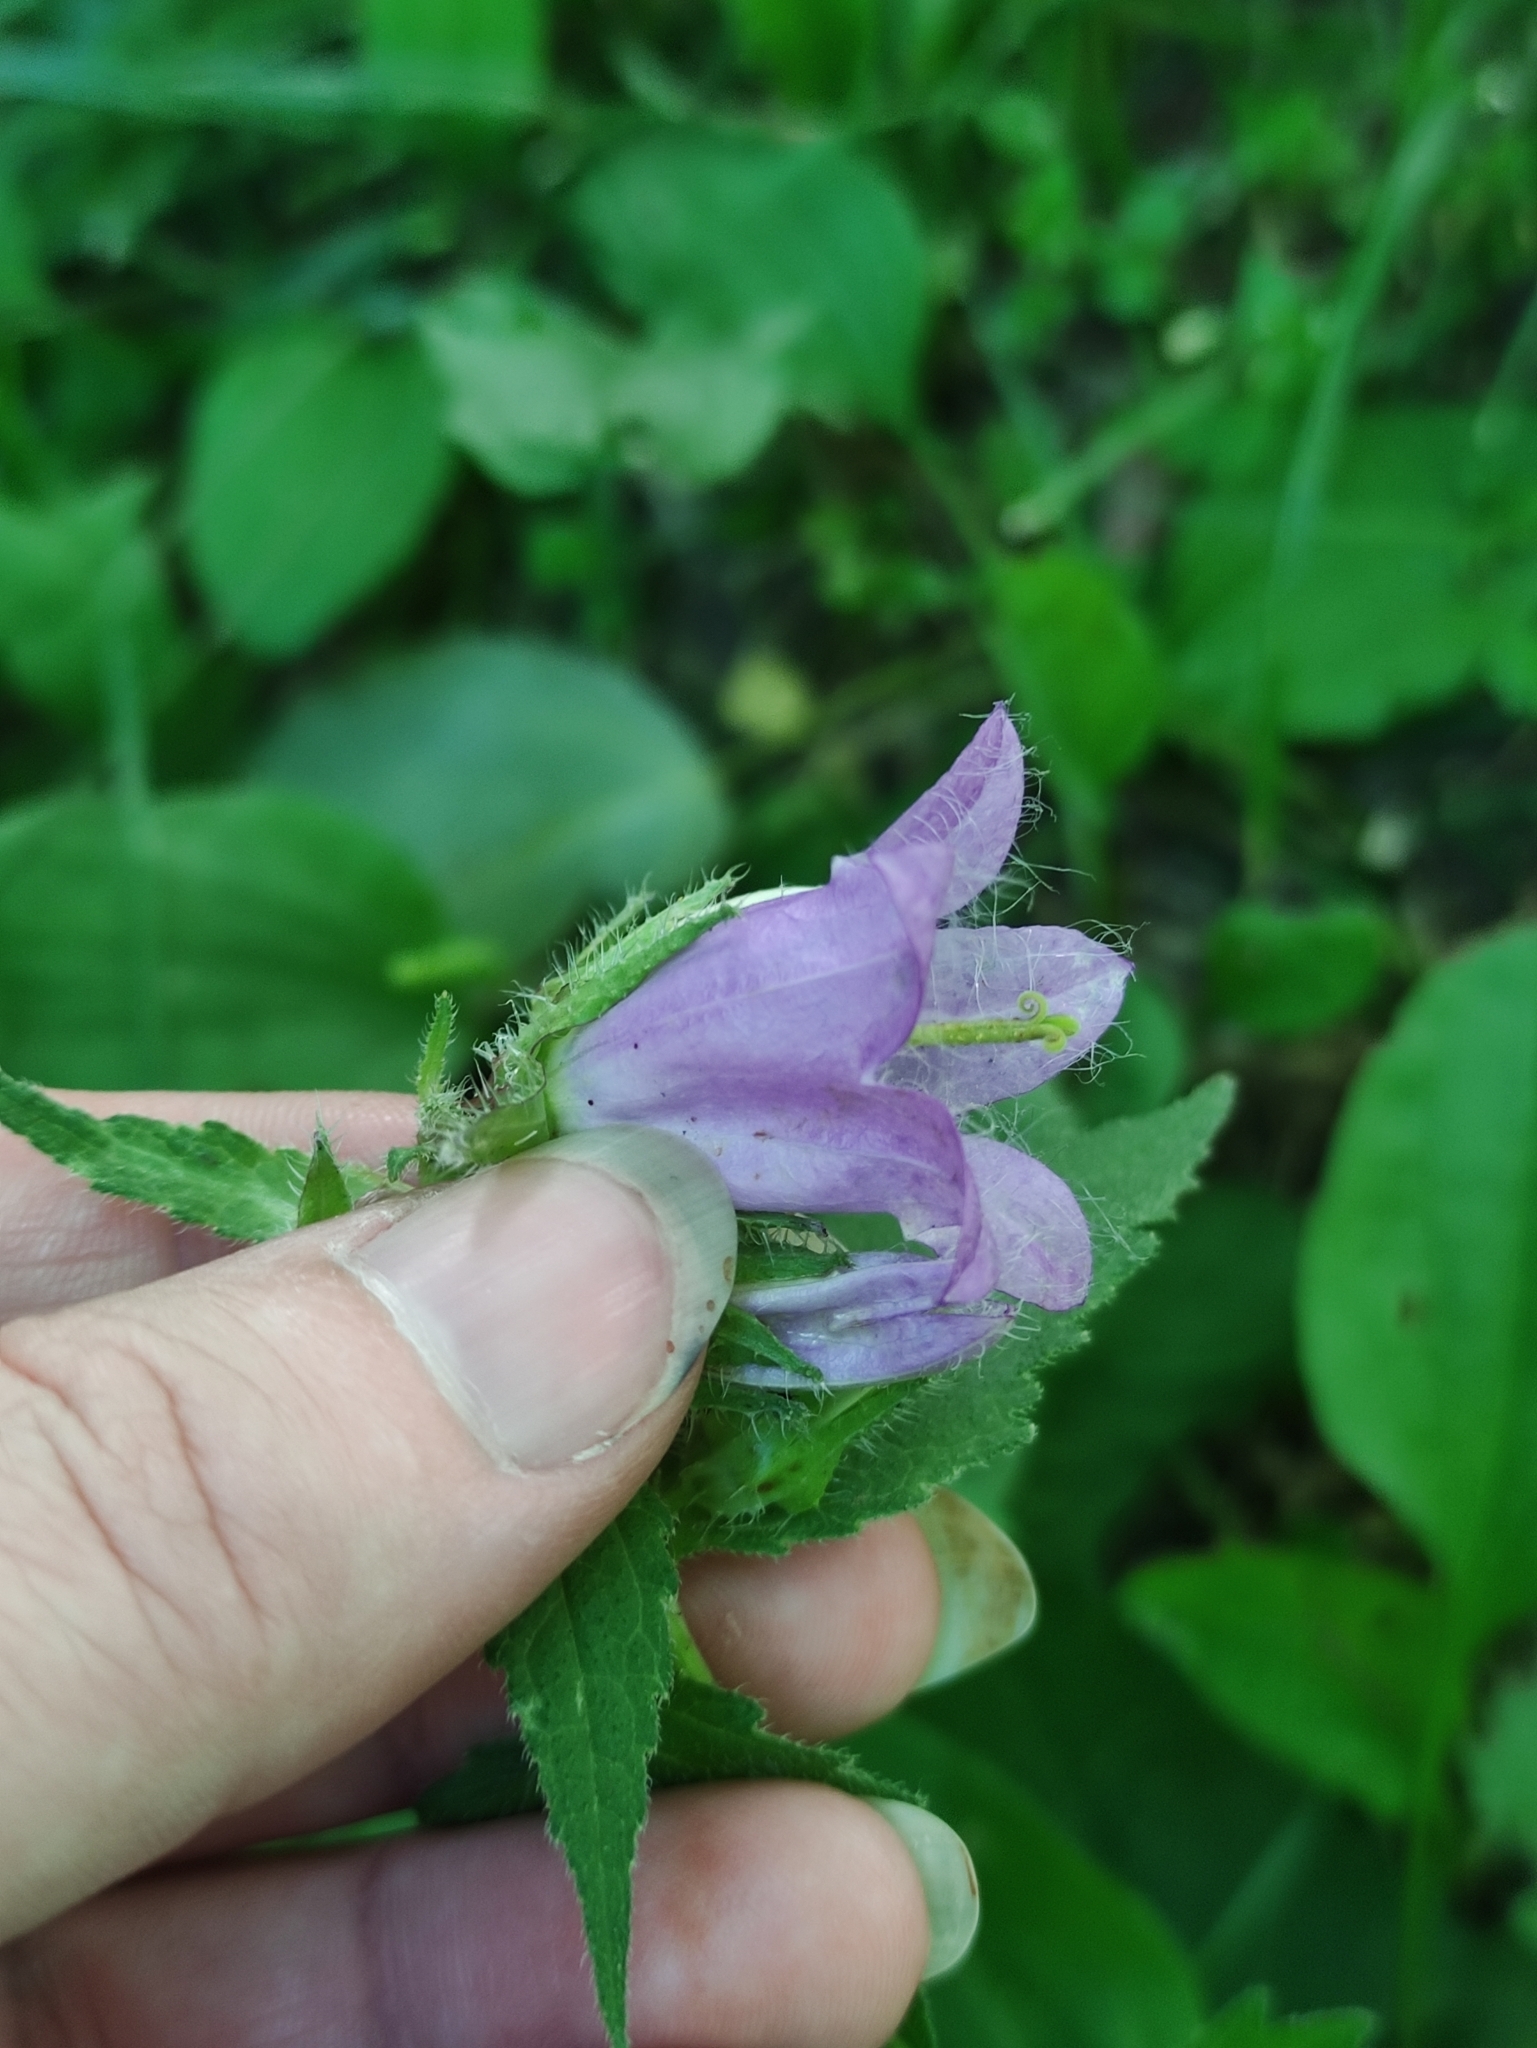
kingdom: Plantae
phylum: Tracheophyta
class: Magnoliopsida
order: Asterales
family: Campanulaceae
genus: Campanula
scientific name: Campanula trachelium
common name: Nettle-leaved bellflower
